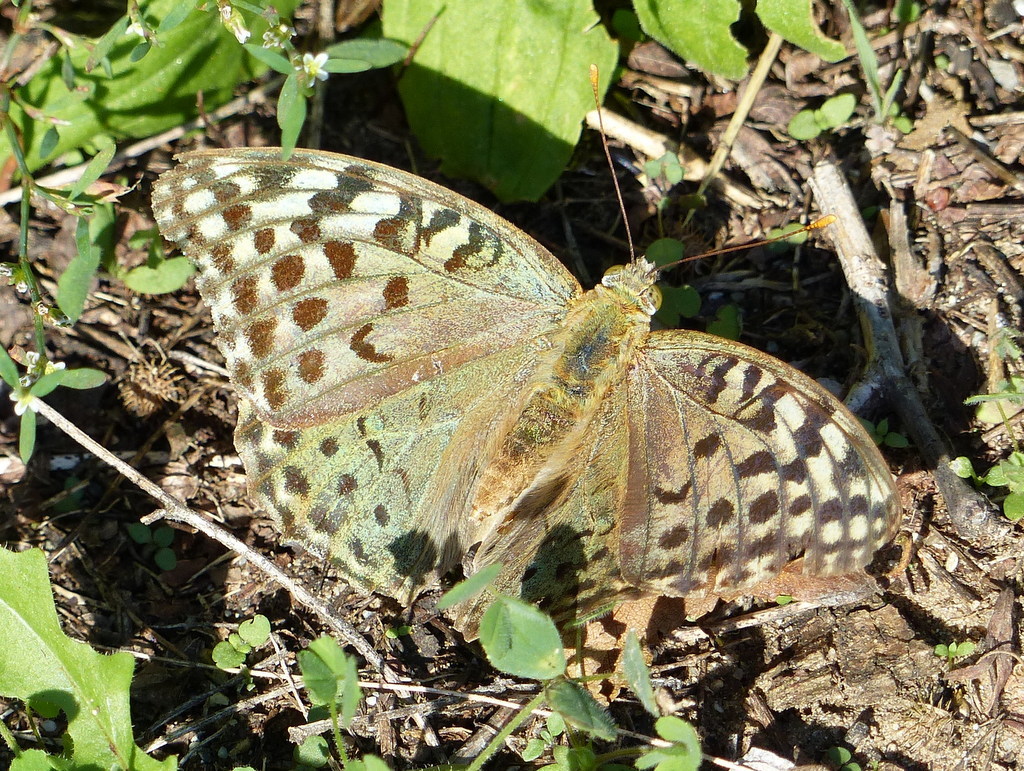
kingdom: Animalia
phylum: Arthropoda
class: Insecta
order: Lepidoptera
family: Nymphalidae
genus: Damora
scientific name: Damora pandora
